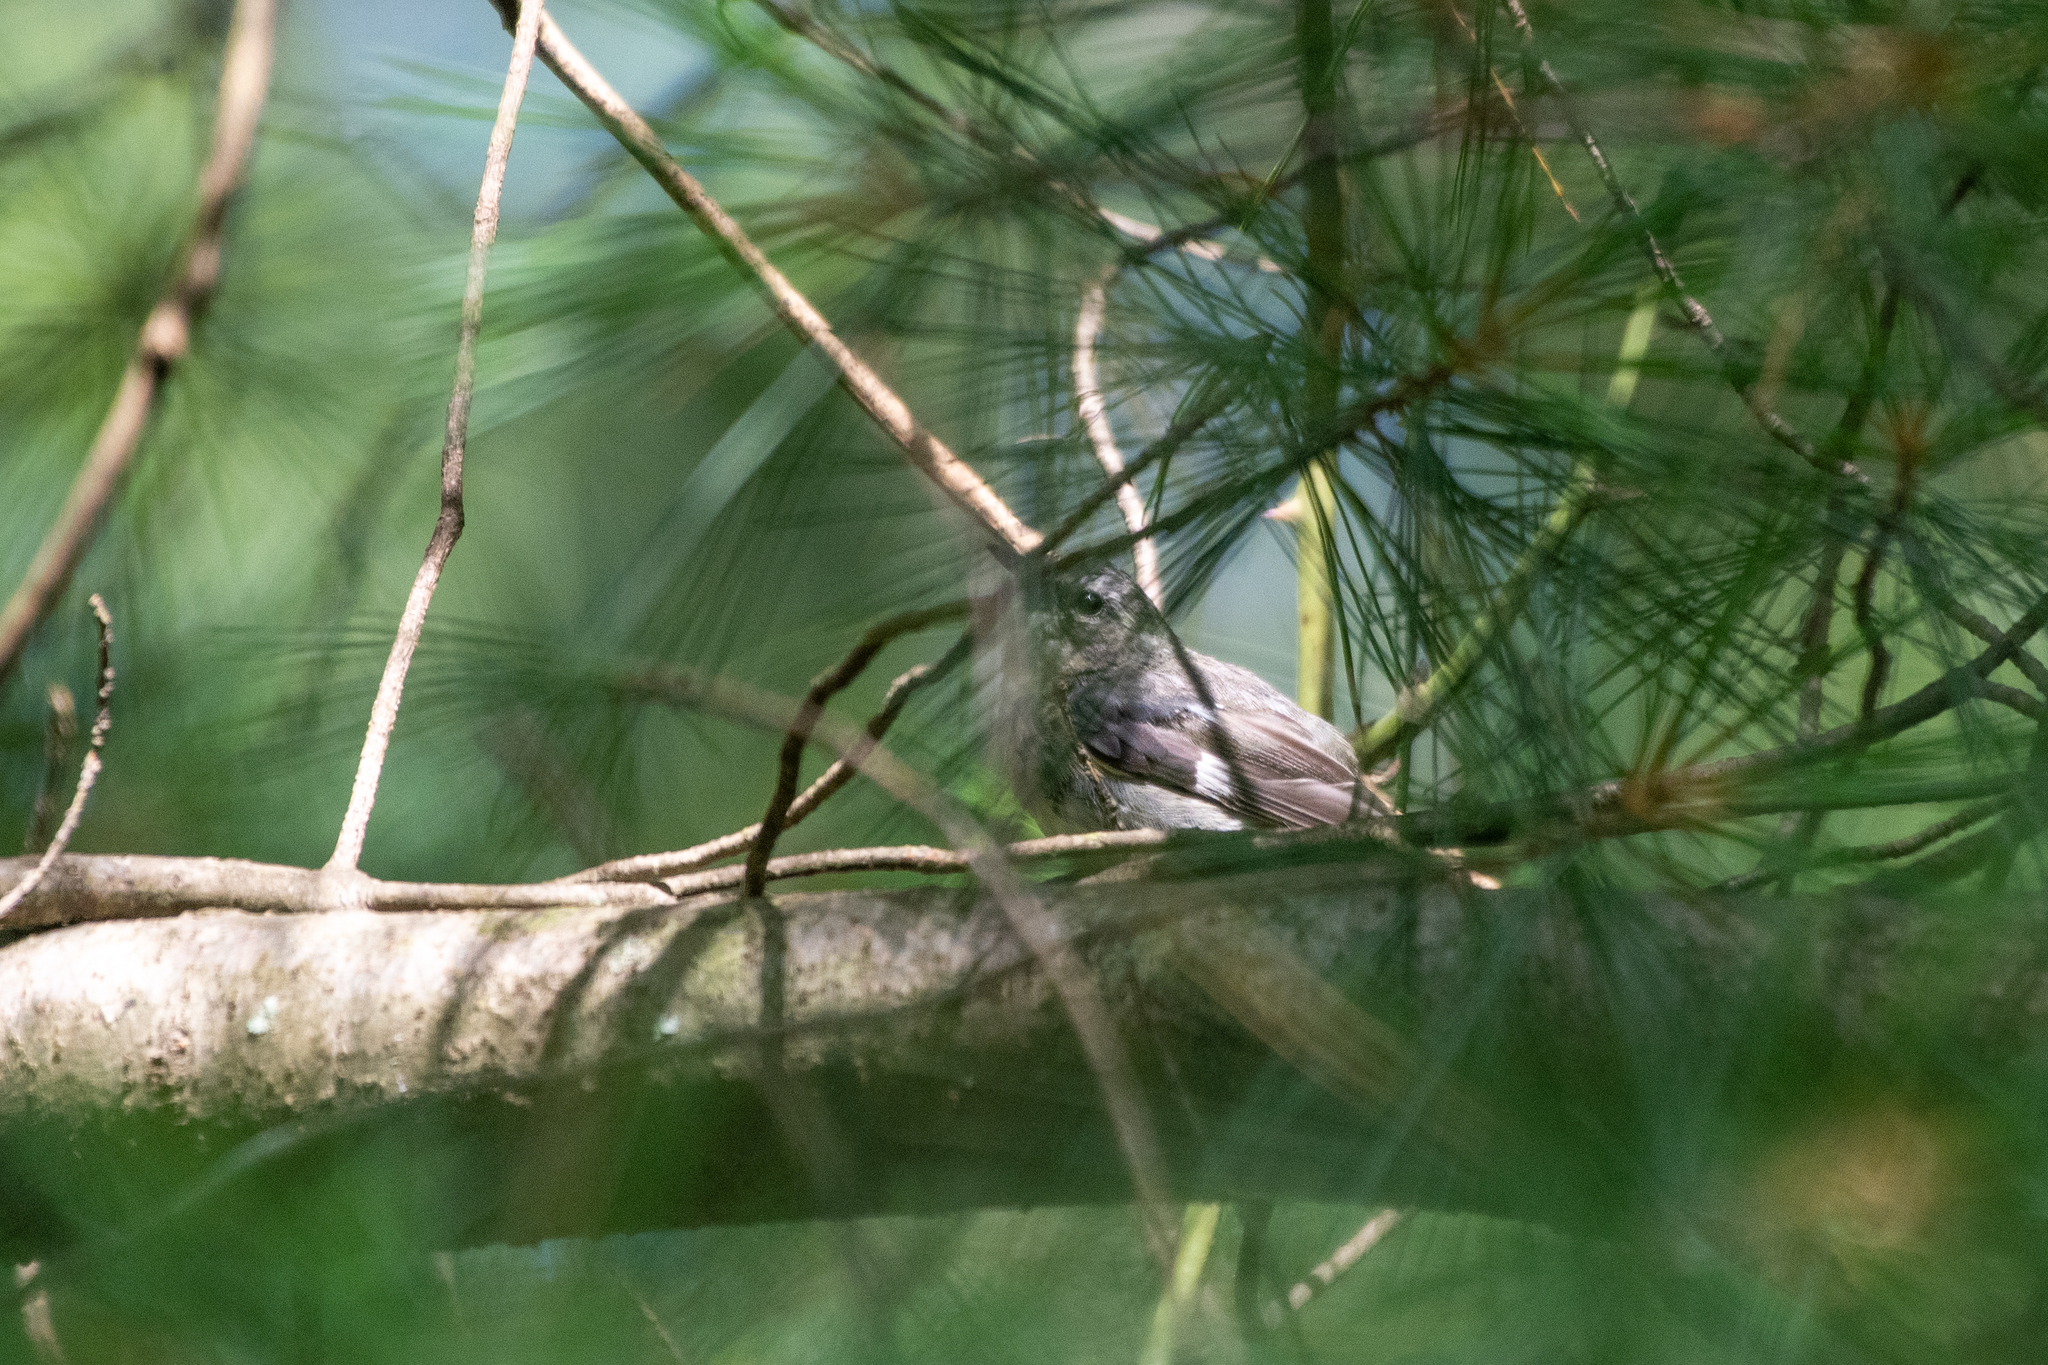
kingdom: Animalia
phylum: Chordata
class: Aves
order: Passeriformes
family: Parulidae
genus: Setophaga
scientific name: Setophaga caerulescens
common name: Black-throated blue warbler
